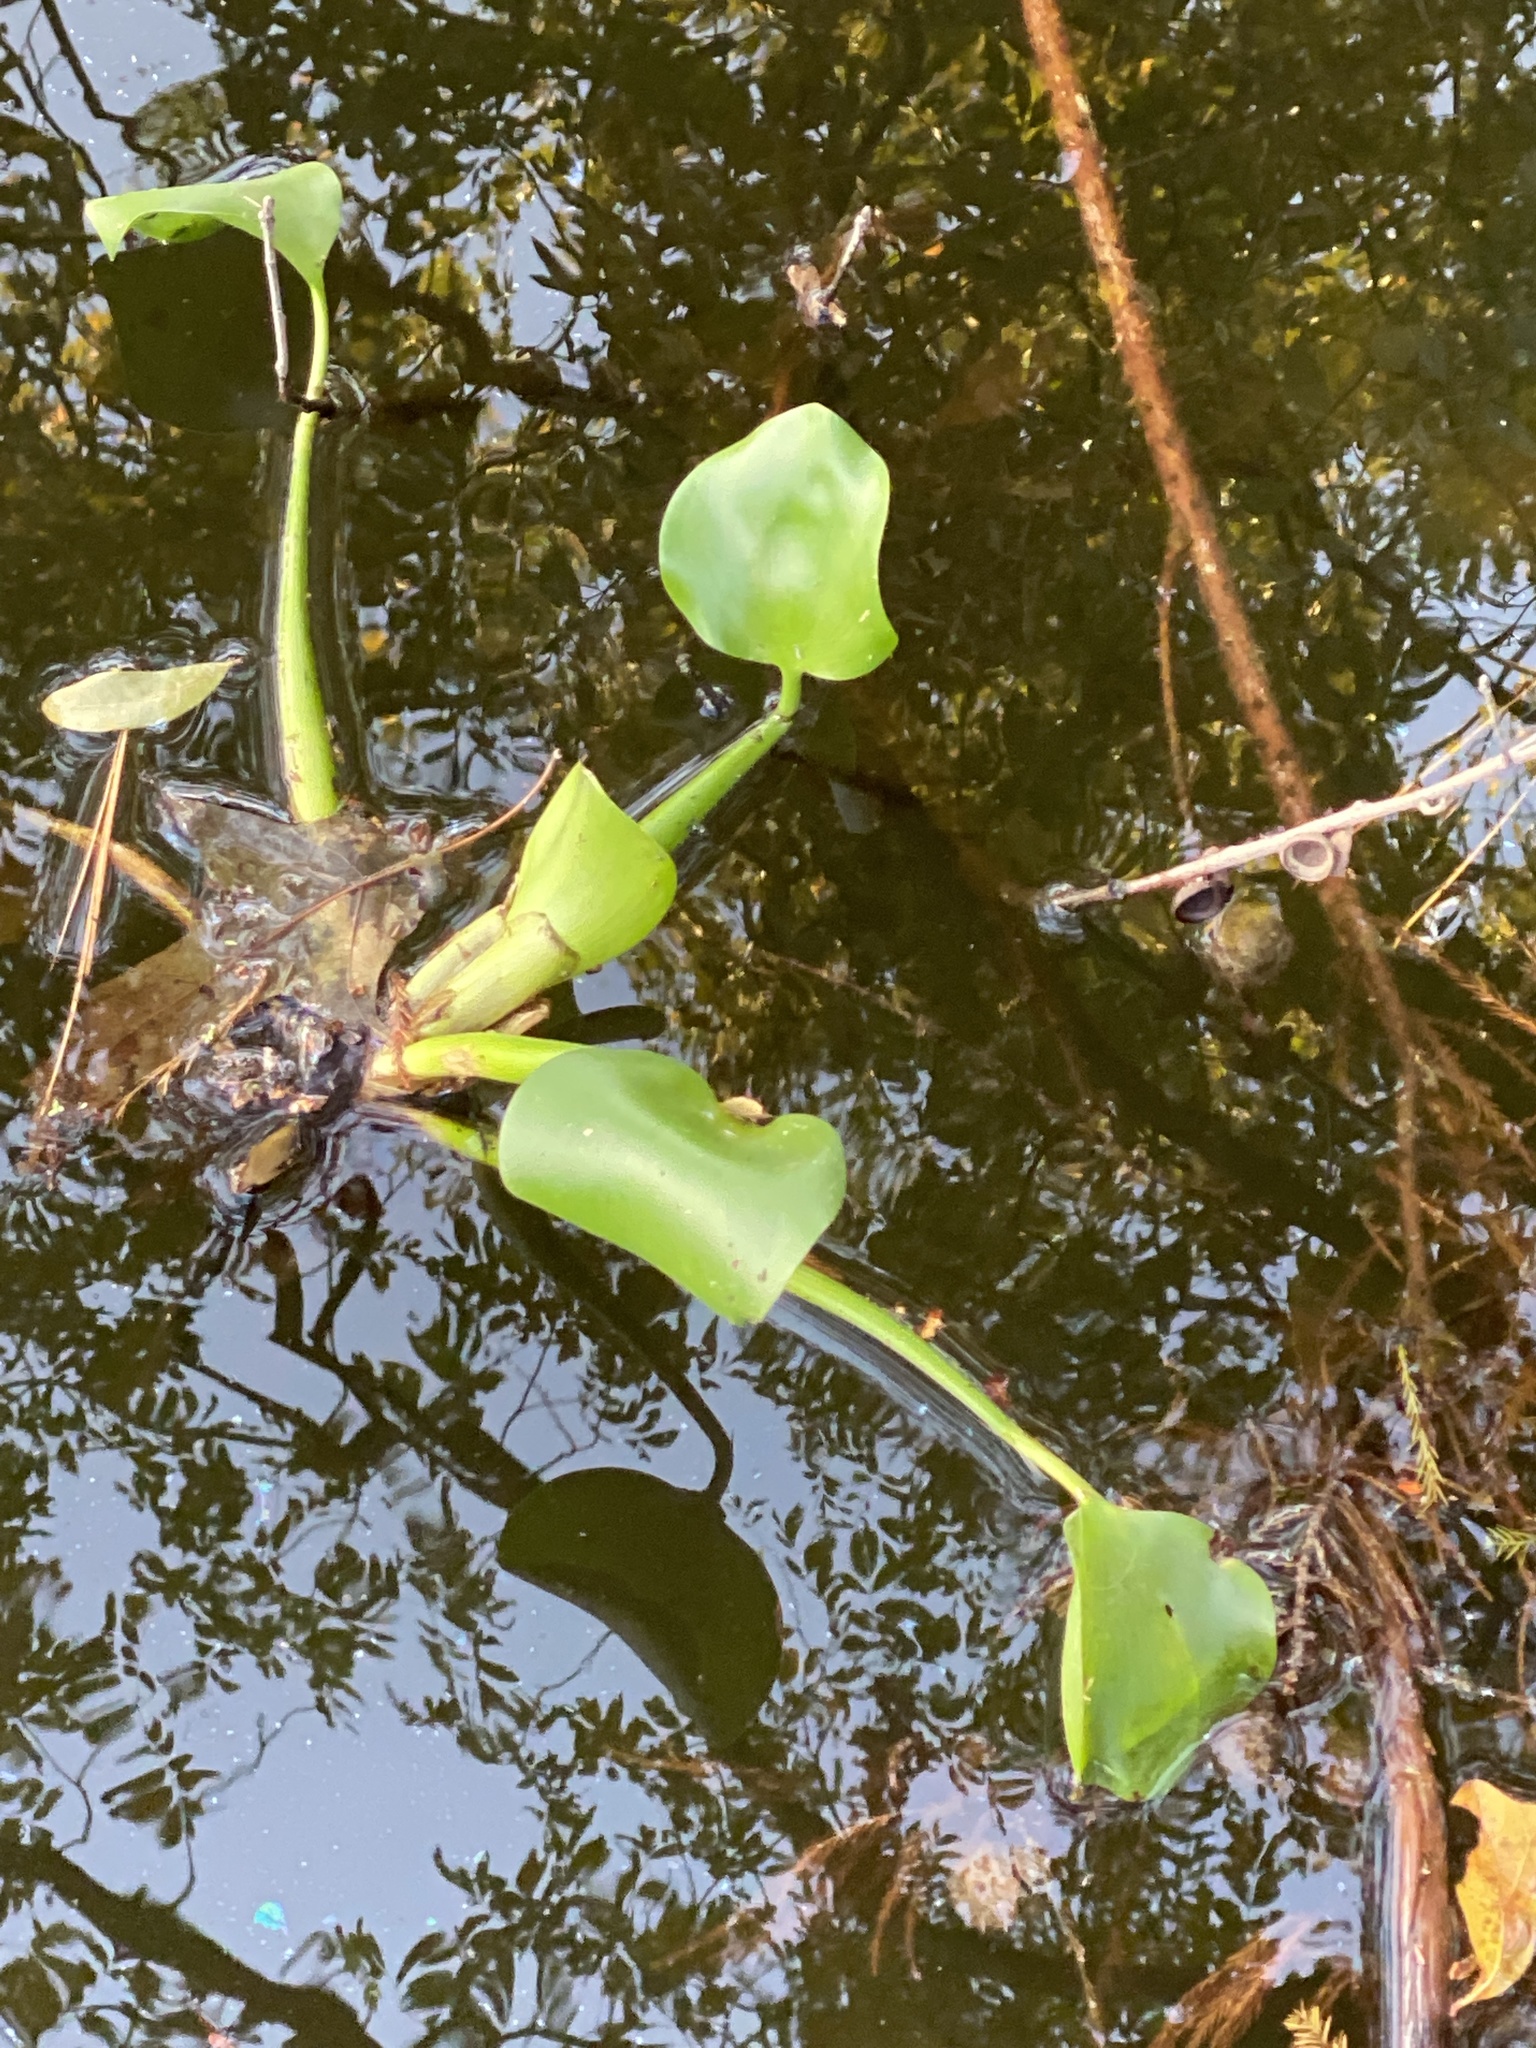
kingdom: Plantae
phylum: Tracheophyta
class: Liliopsida
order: Commelinales
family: Pontederiaceae
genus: Pontederia
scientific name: Pontederia crassipes
